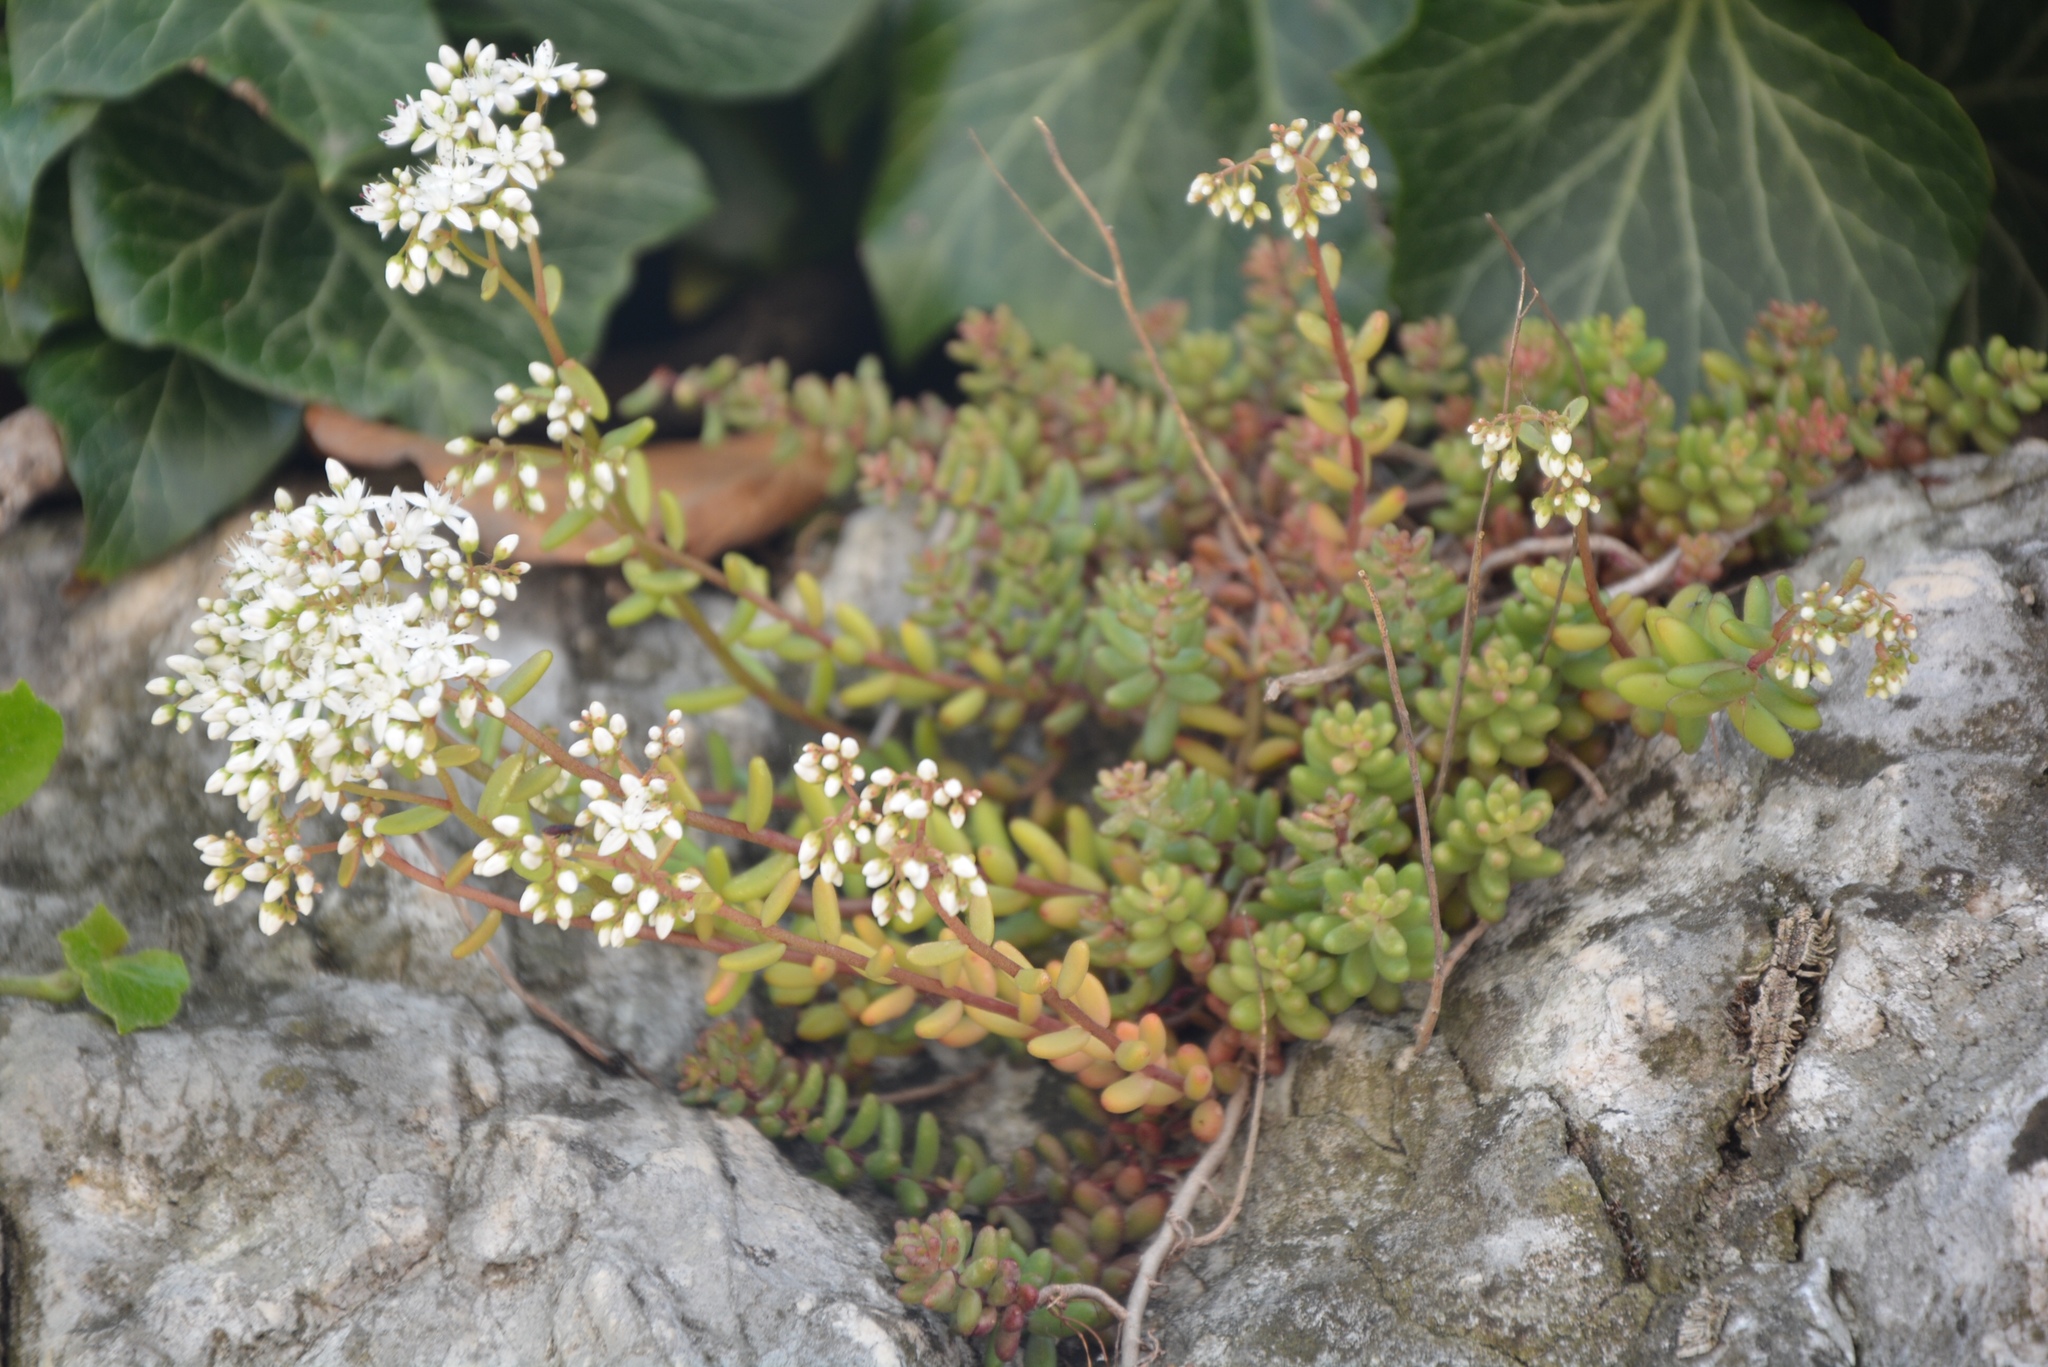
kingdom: Plantae
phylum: Tracheophyta
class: Magnoliopsida
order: Saxifragales
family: Crassulaceae
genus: Sedum
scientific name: Sedum album
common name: White stonecrop
